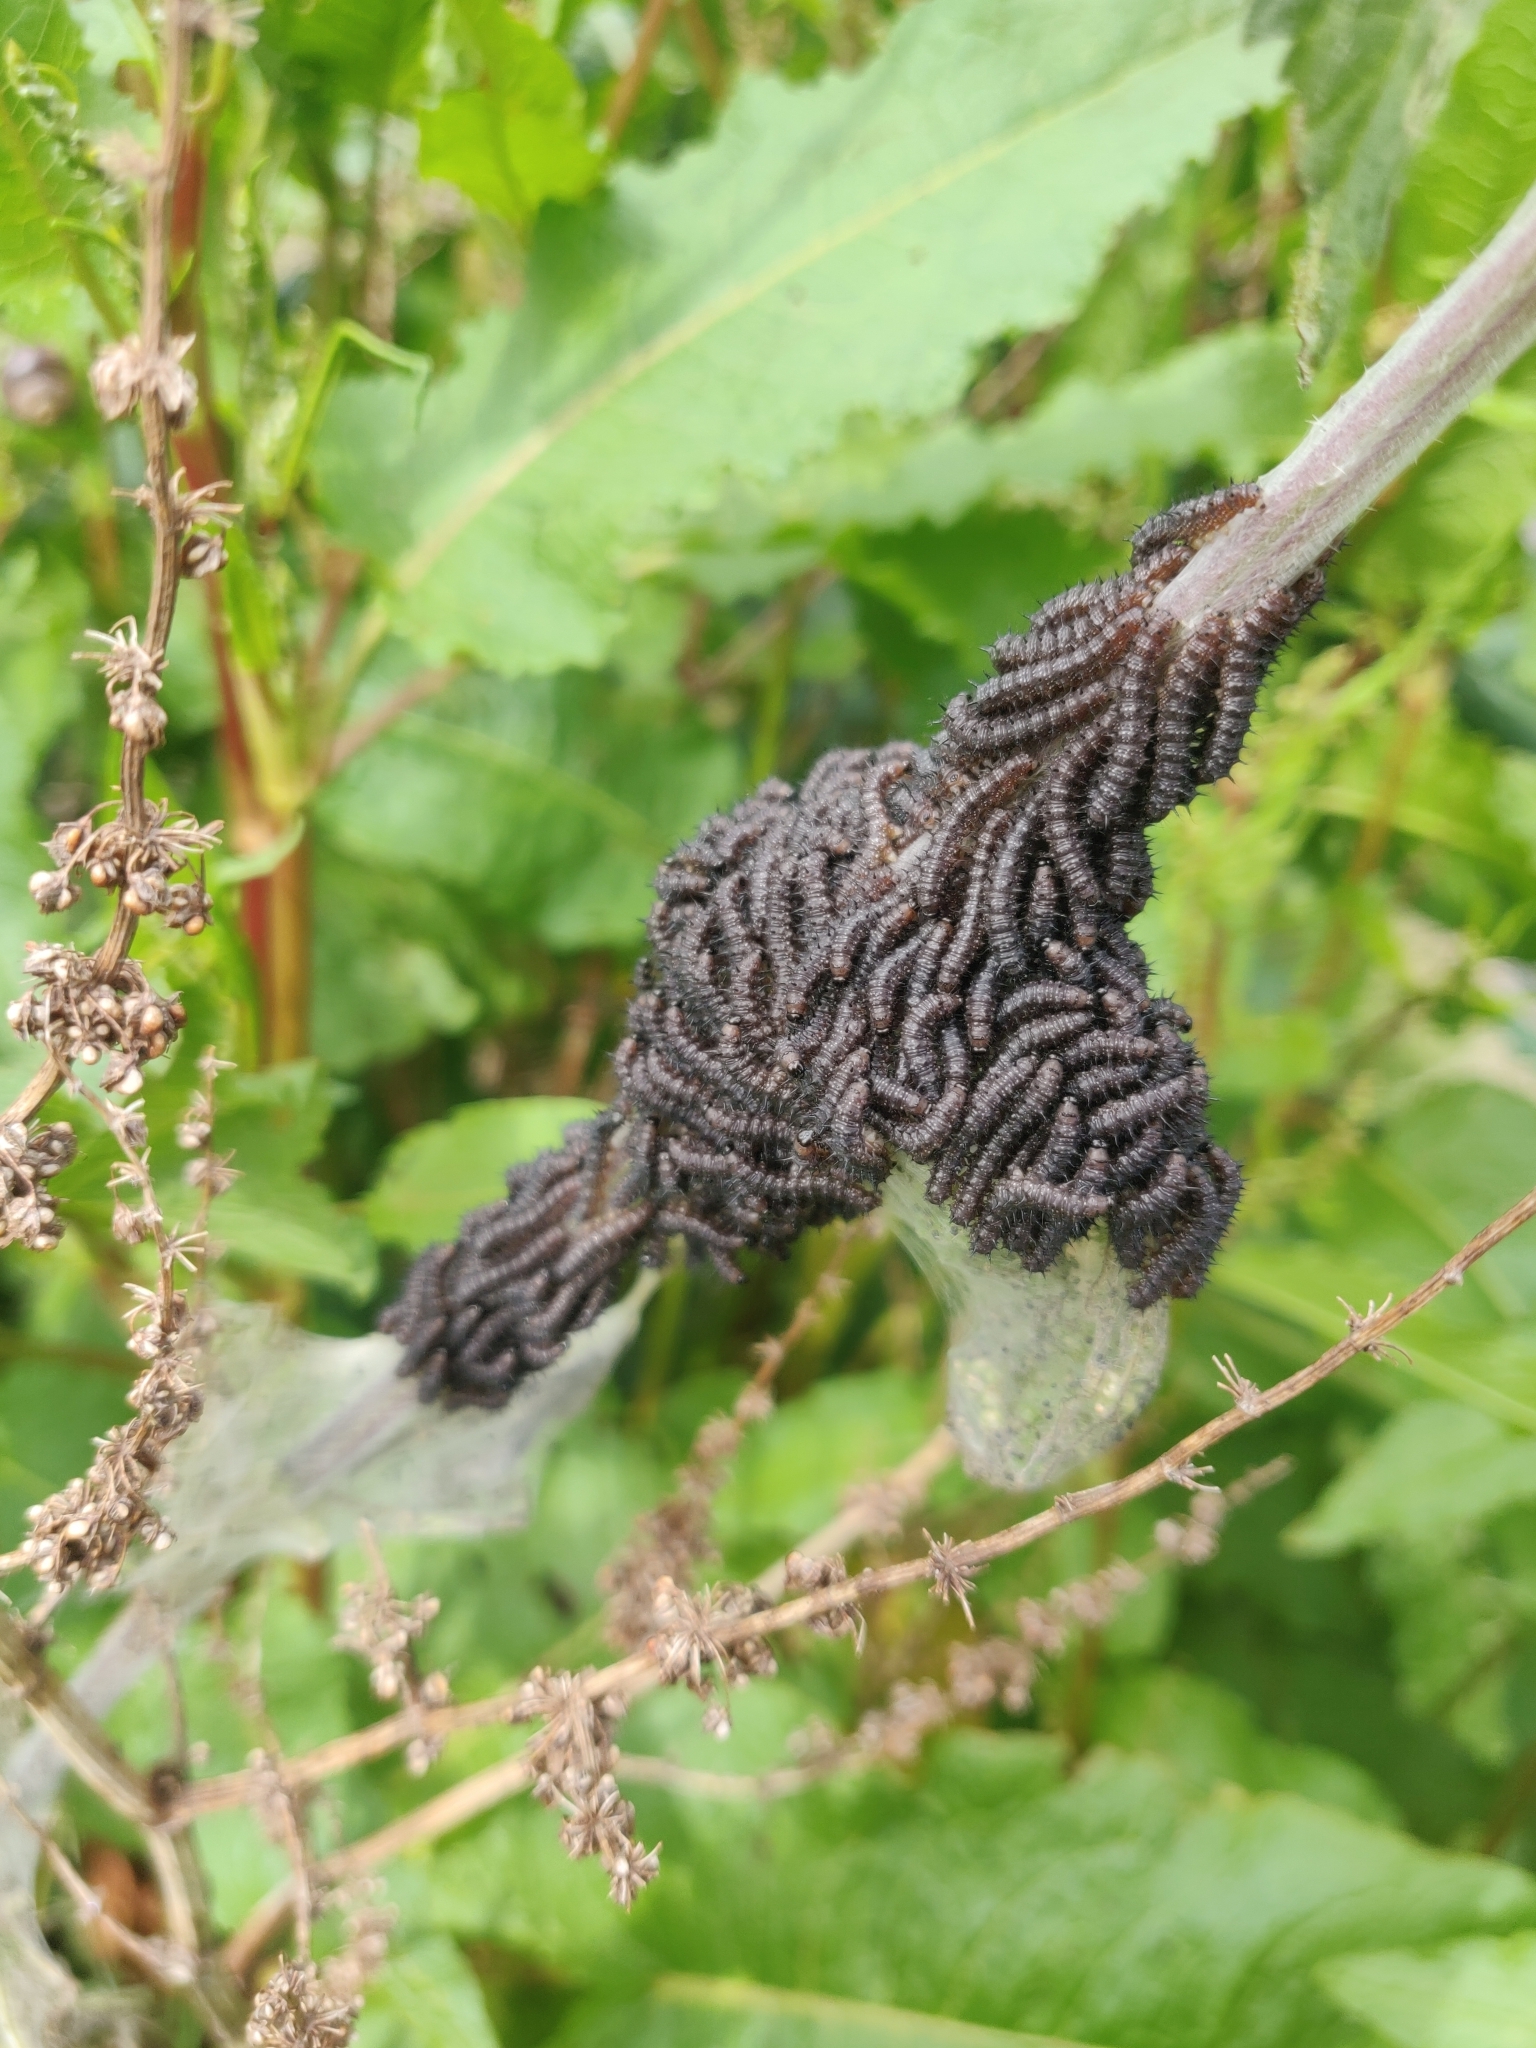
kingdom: Animalia
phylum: Arthropoda
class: Insecta
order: Lepidoptera
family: Nymphalidae
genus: Aglais
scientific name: Aglais io
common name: Peacock
